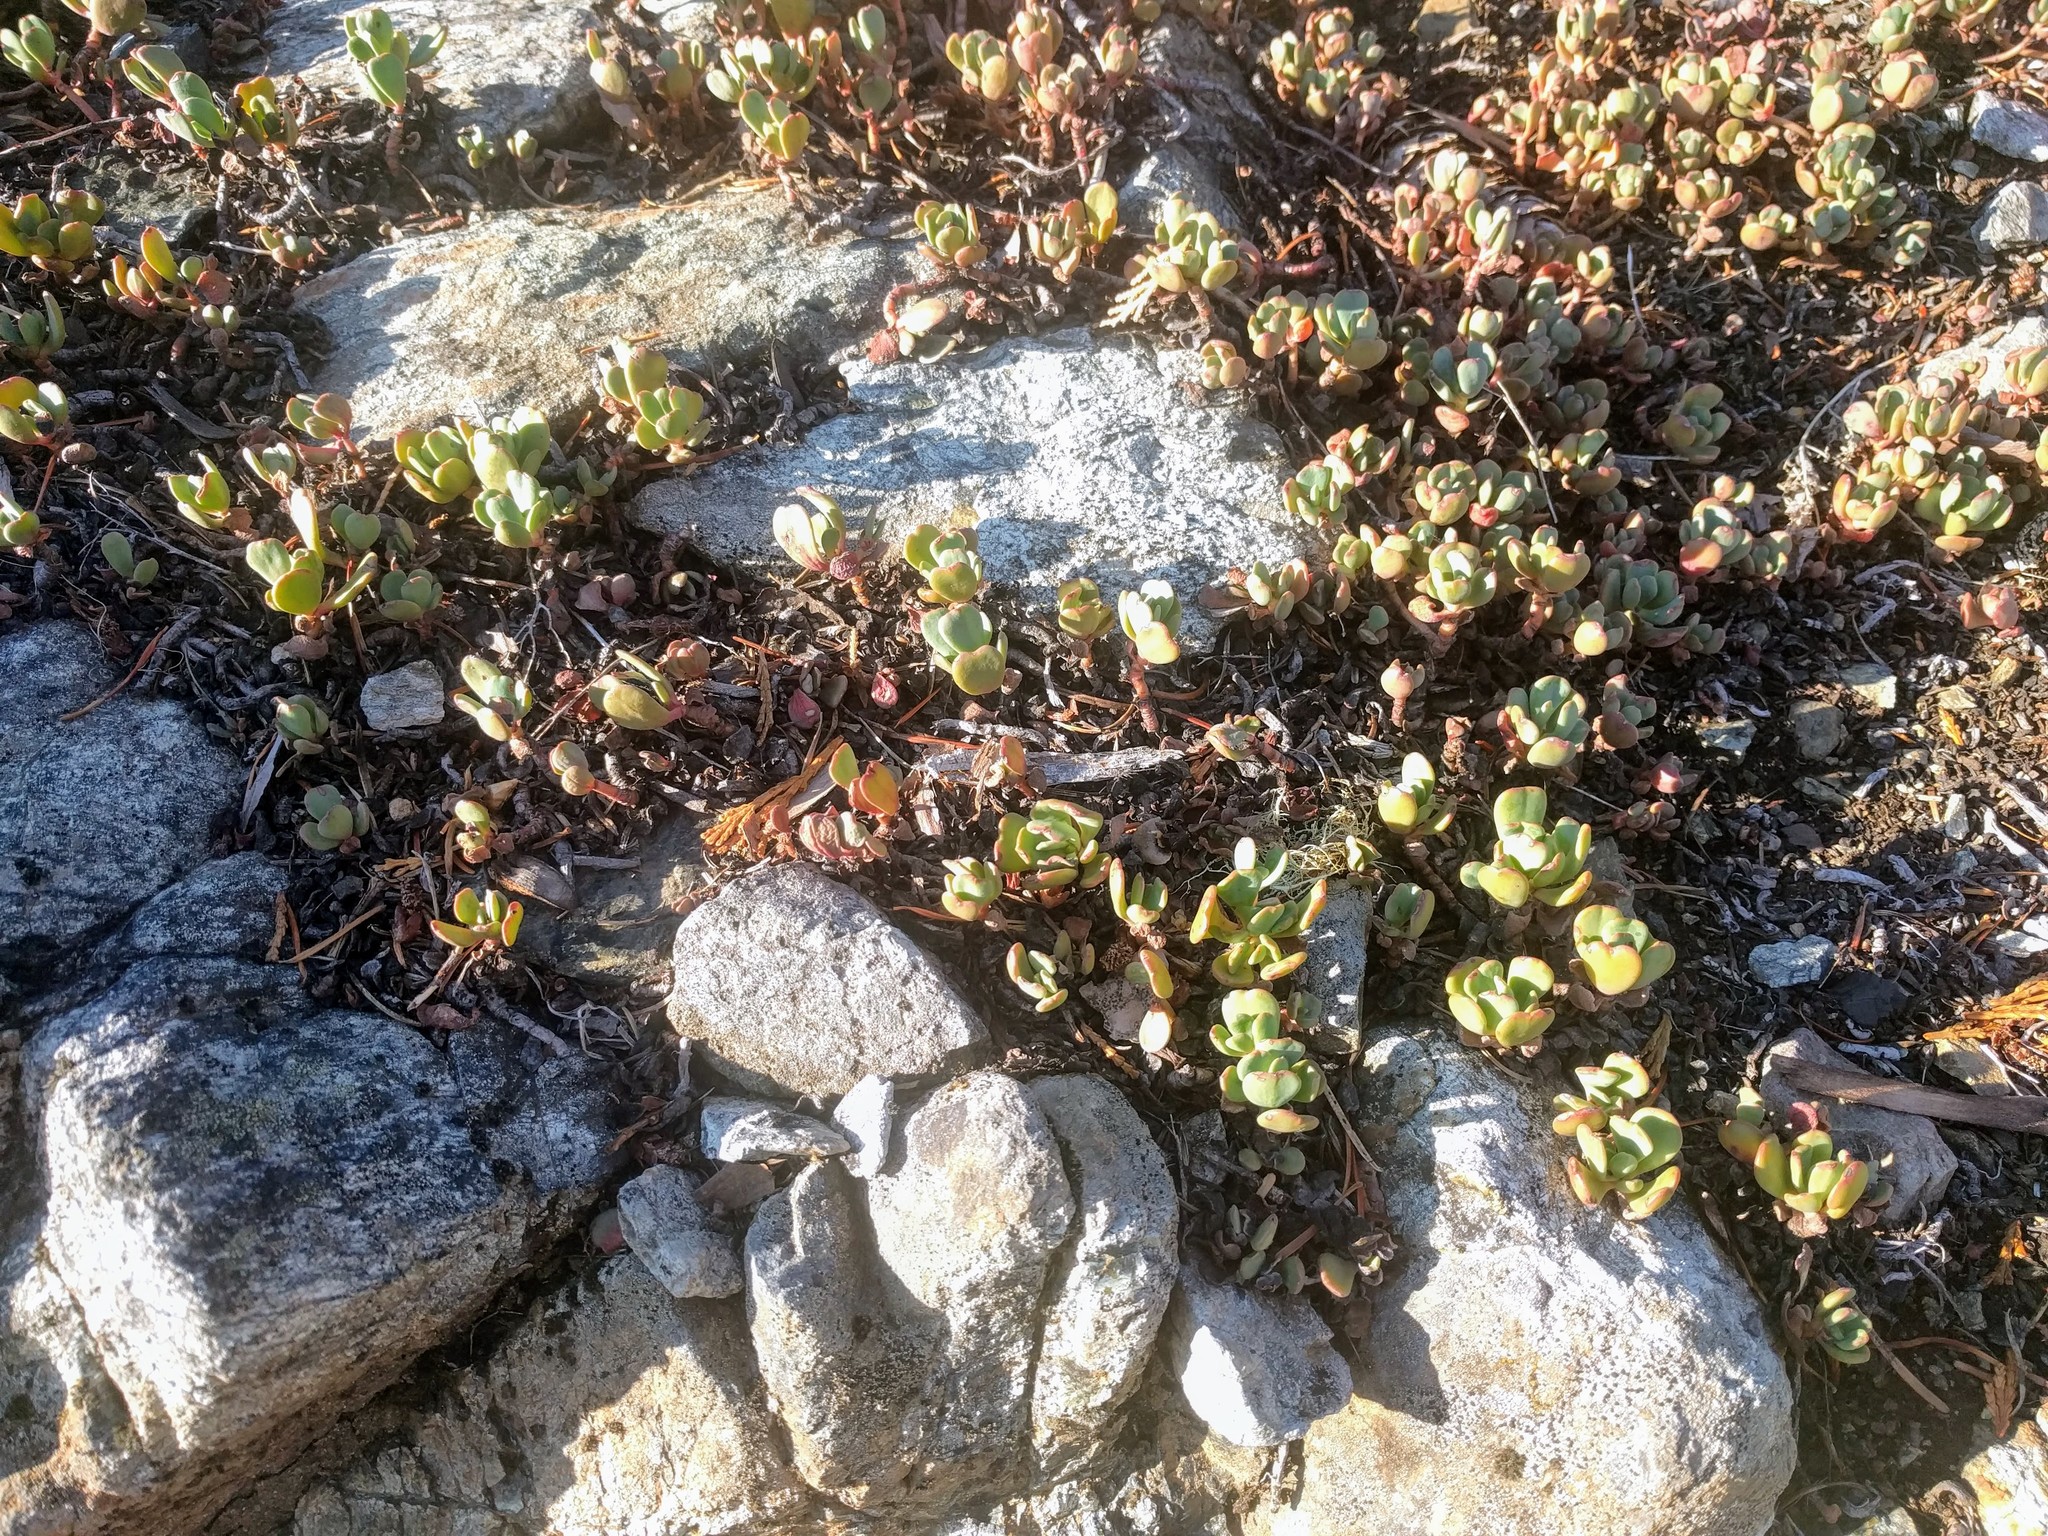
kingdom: Plantae
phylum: Tracheophyta
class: Magnoliopsida
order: Saxifragales
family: Crassulaceae
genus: Sedum
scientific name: Sedum spathulifolium
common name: Colorado stonecrop
